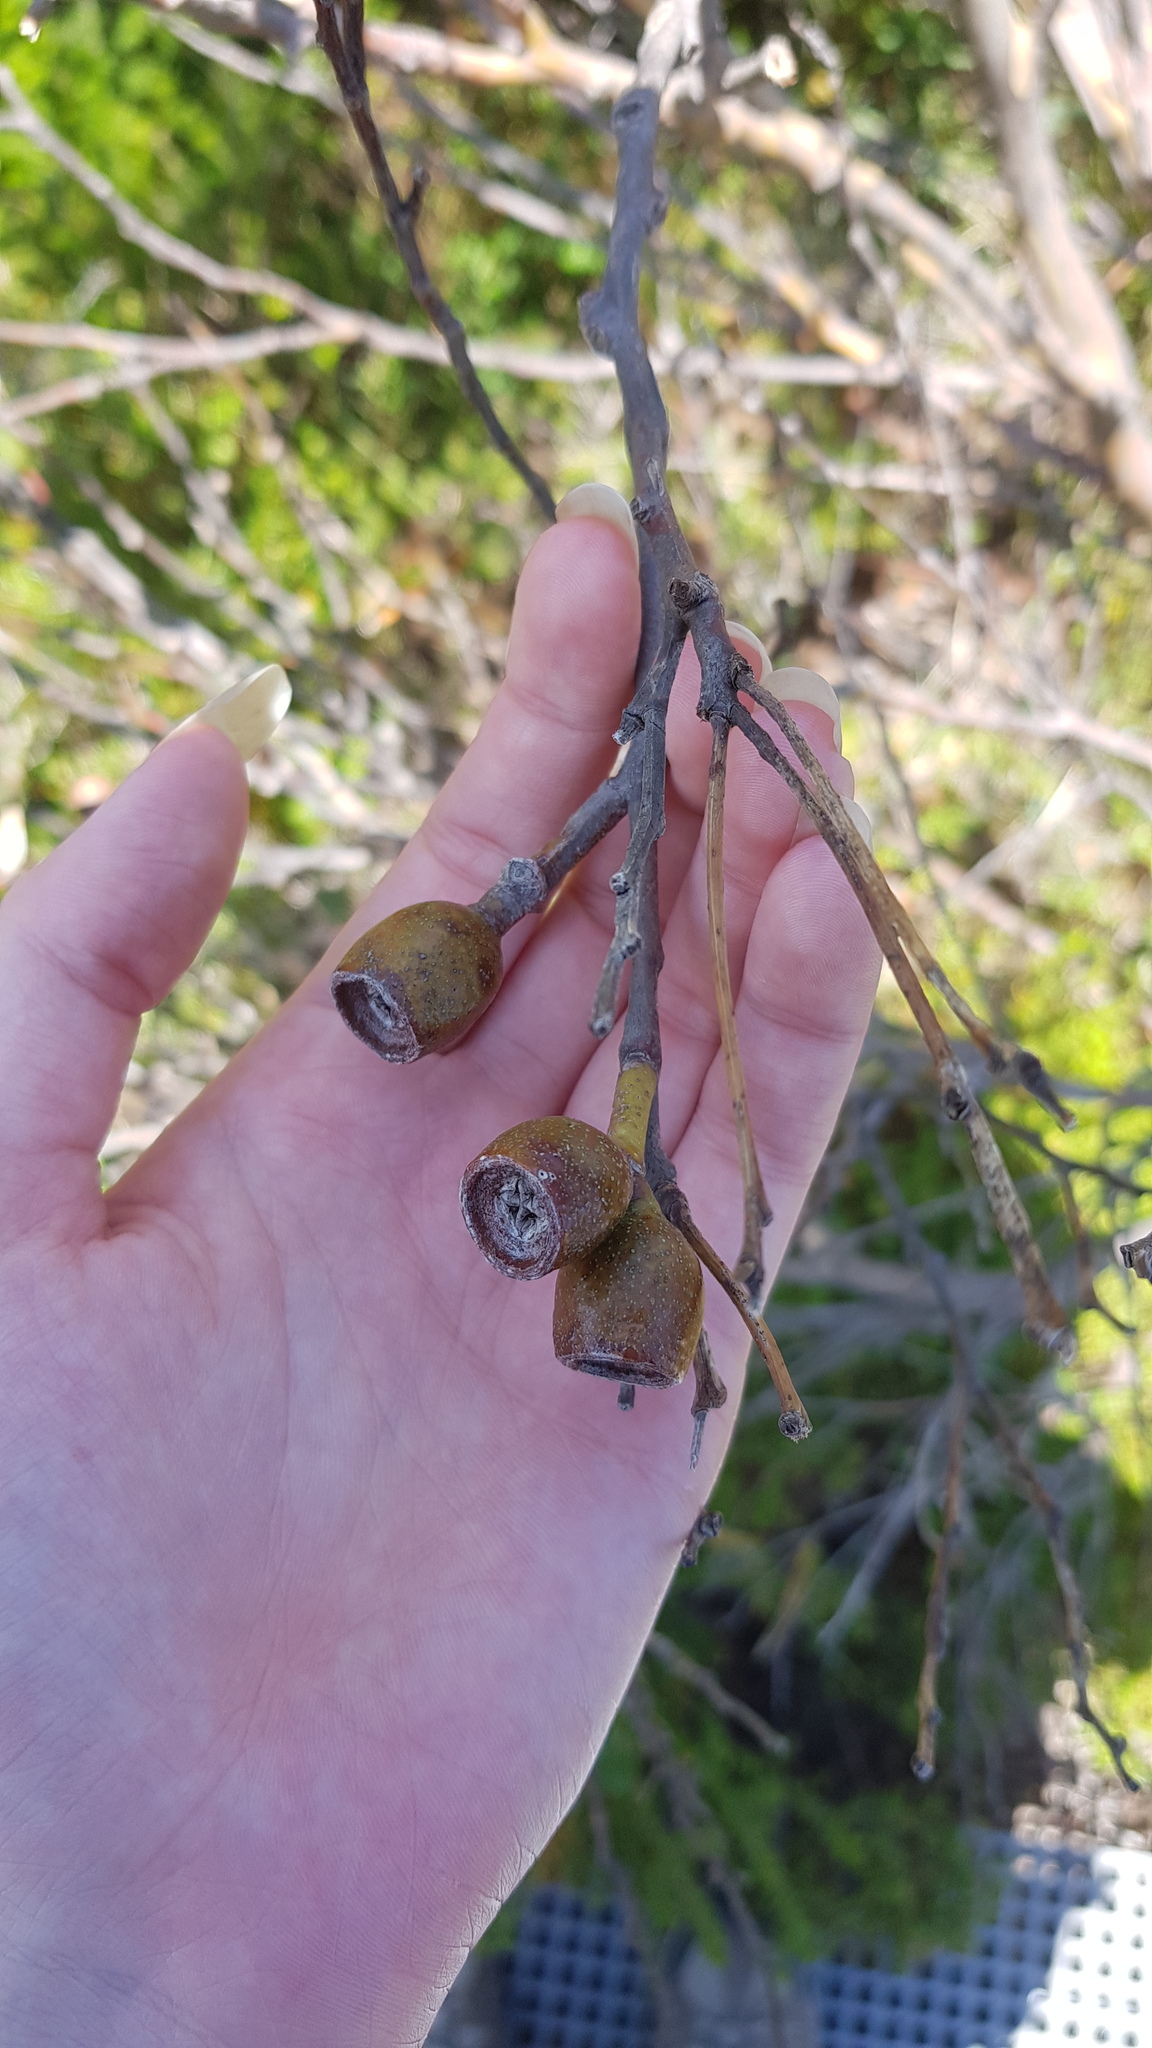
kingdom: Plantae
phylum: Tracheophyta
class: Magnoliopsida
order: Myrtales
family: Myrtaceae
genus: Eucalyptus
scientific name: Eucalyptus burgessiana
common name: Falconbridge mallee-ash
